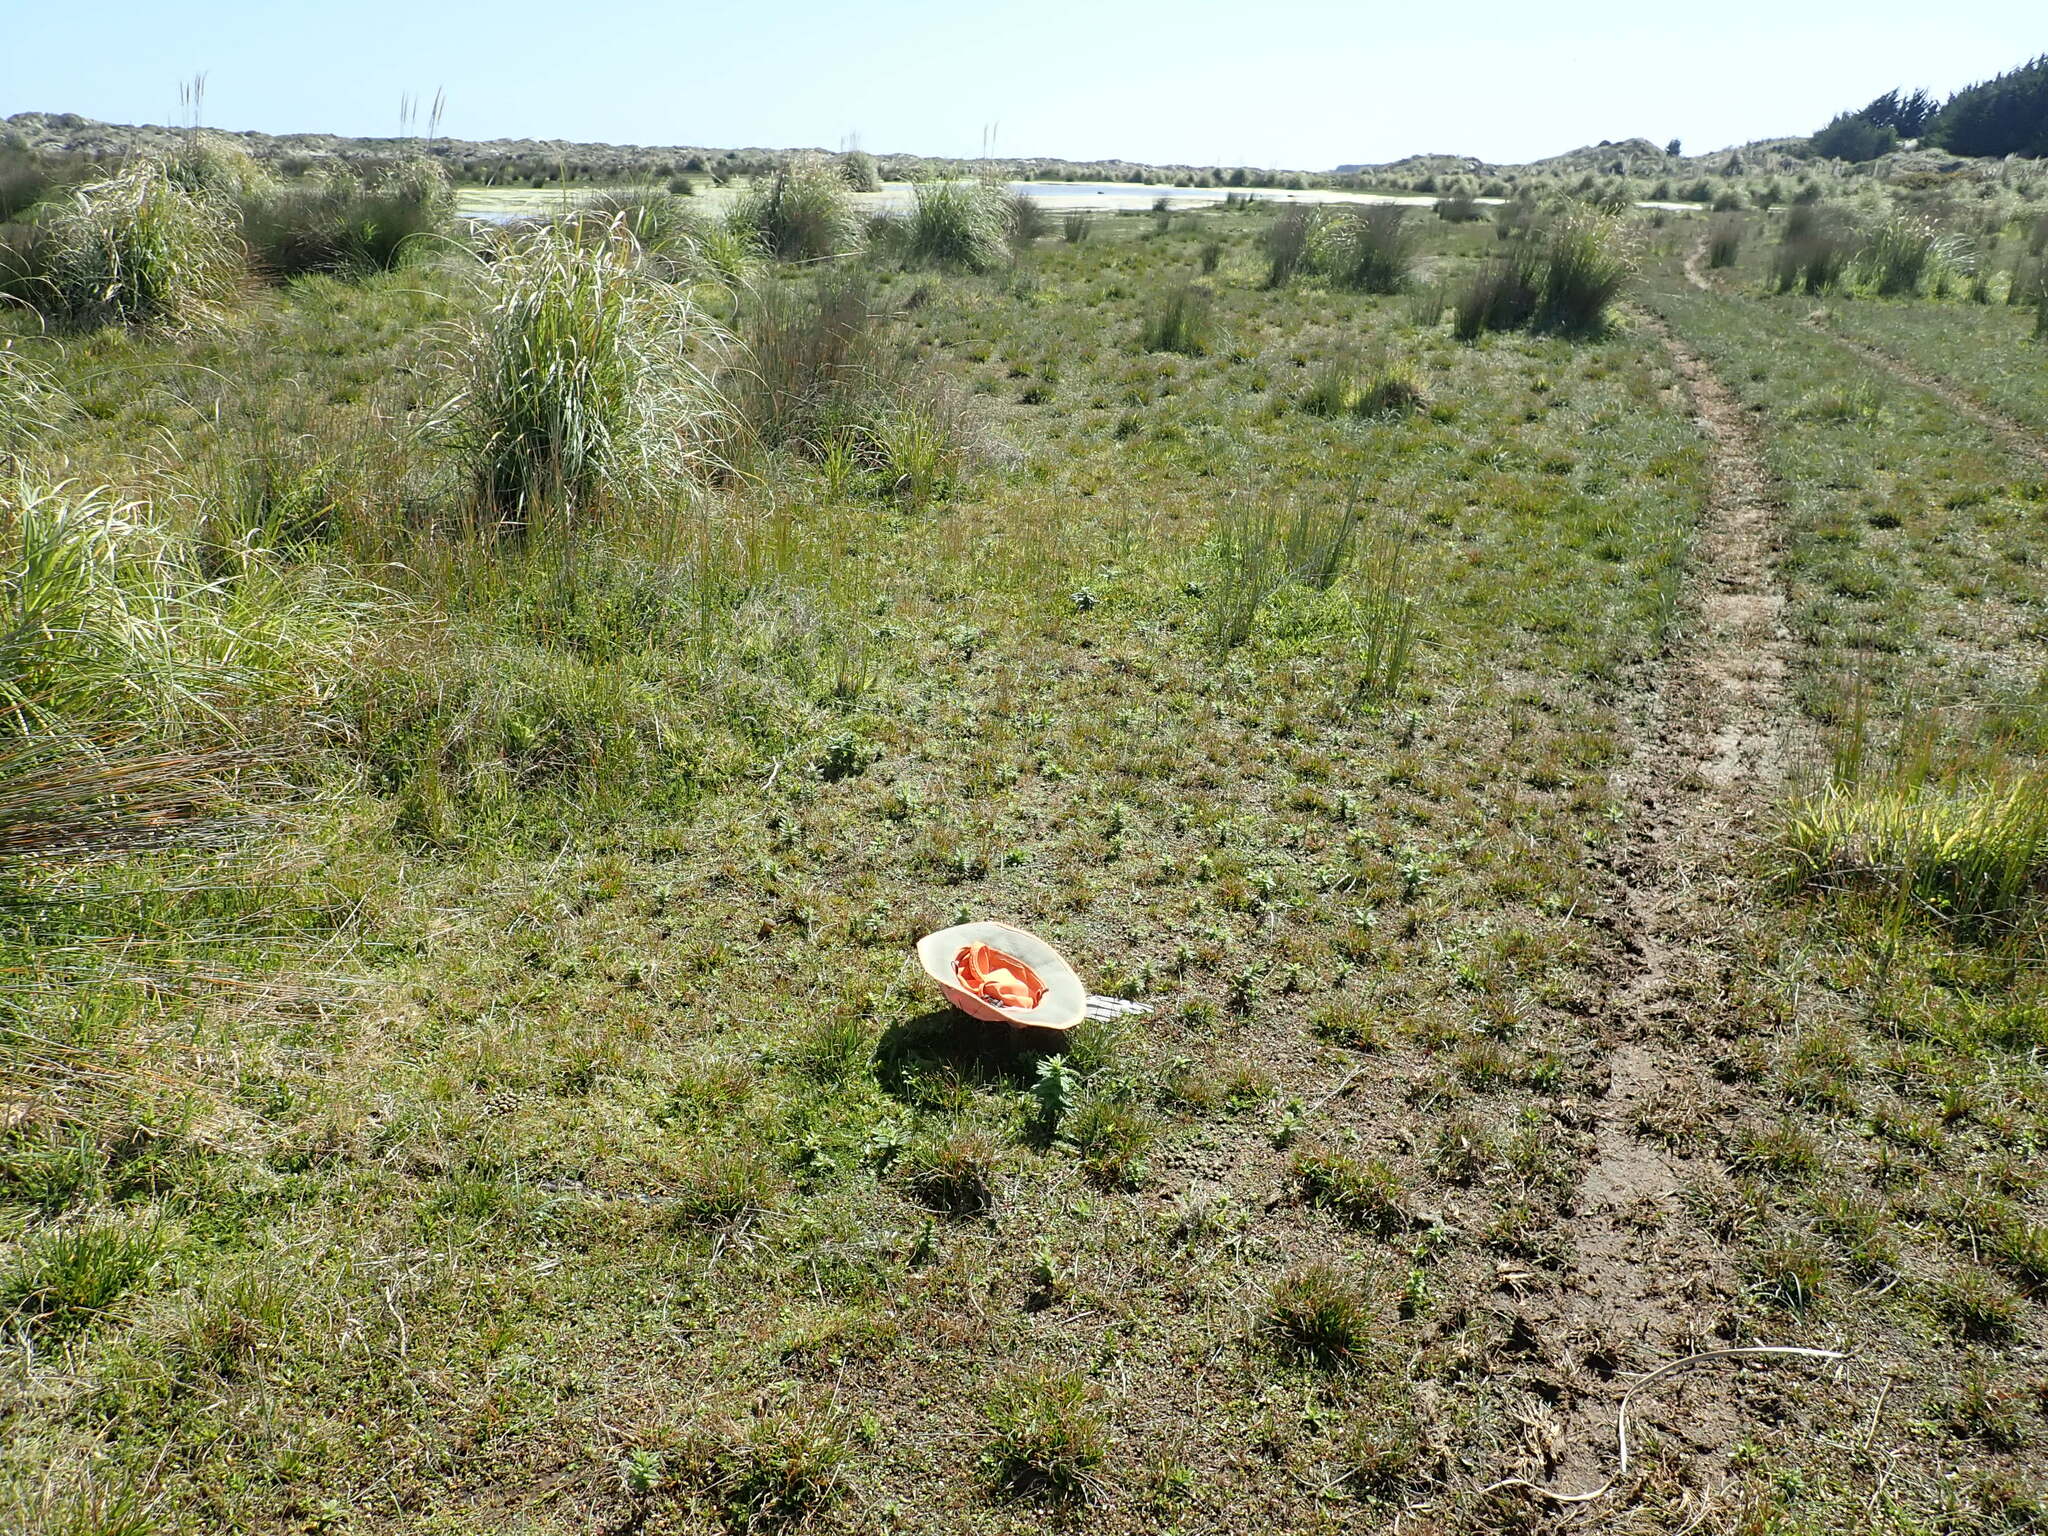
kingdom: Plantae
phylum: Tracheophyta
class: Magnoliopsida
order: Lamiales
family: Orobanchaceae
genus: Bellardia
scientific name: Bellardia viscosa
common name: Sticky parentucellia
